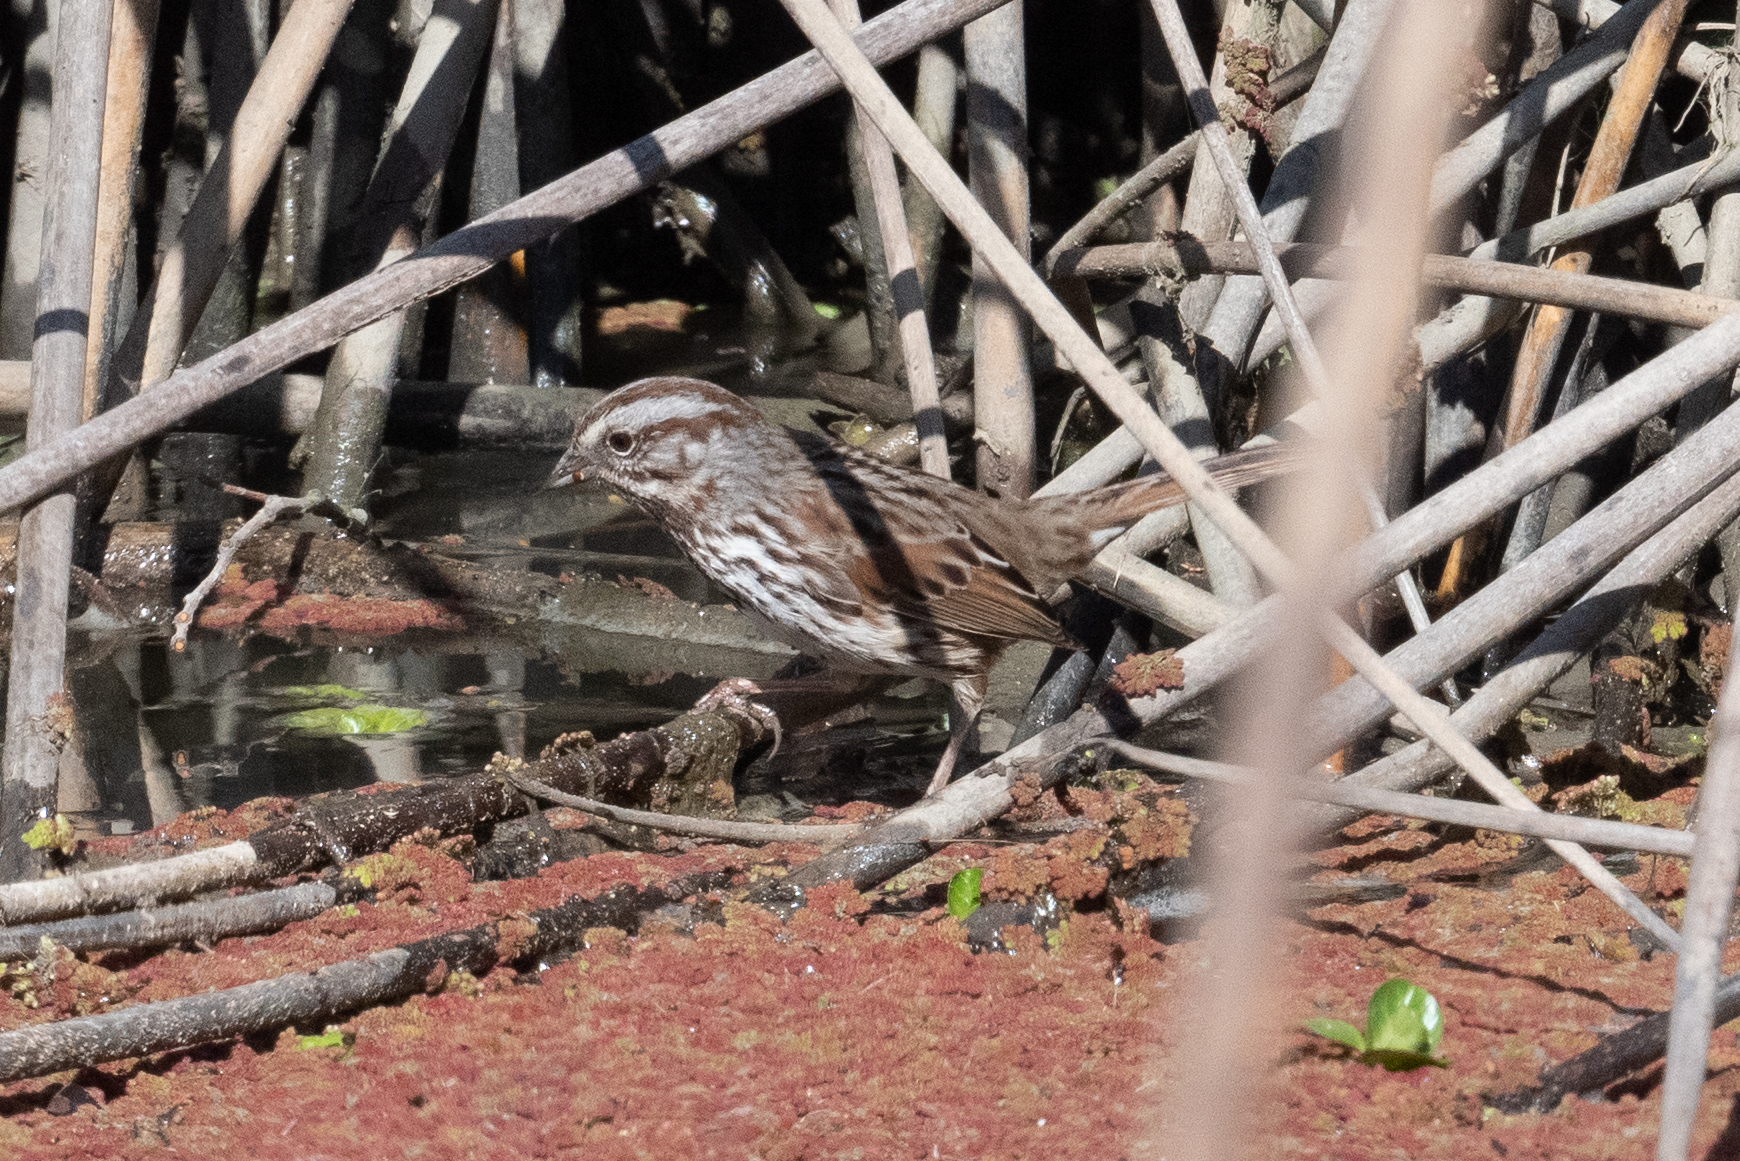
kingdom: Animalia
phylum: Chordata
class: Aves
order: Passeriformes
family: Passerellidae
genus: Melospiza
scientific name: Melospiza melodia
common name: Song sparrow
